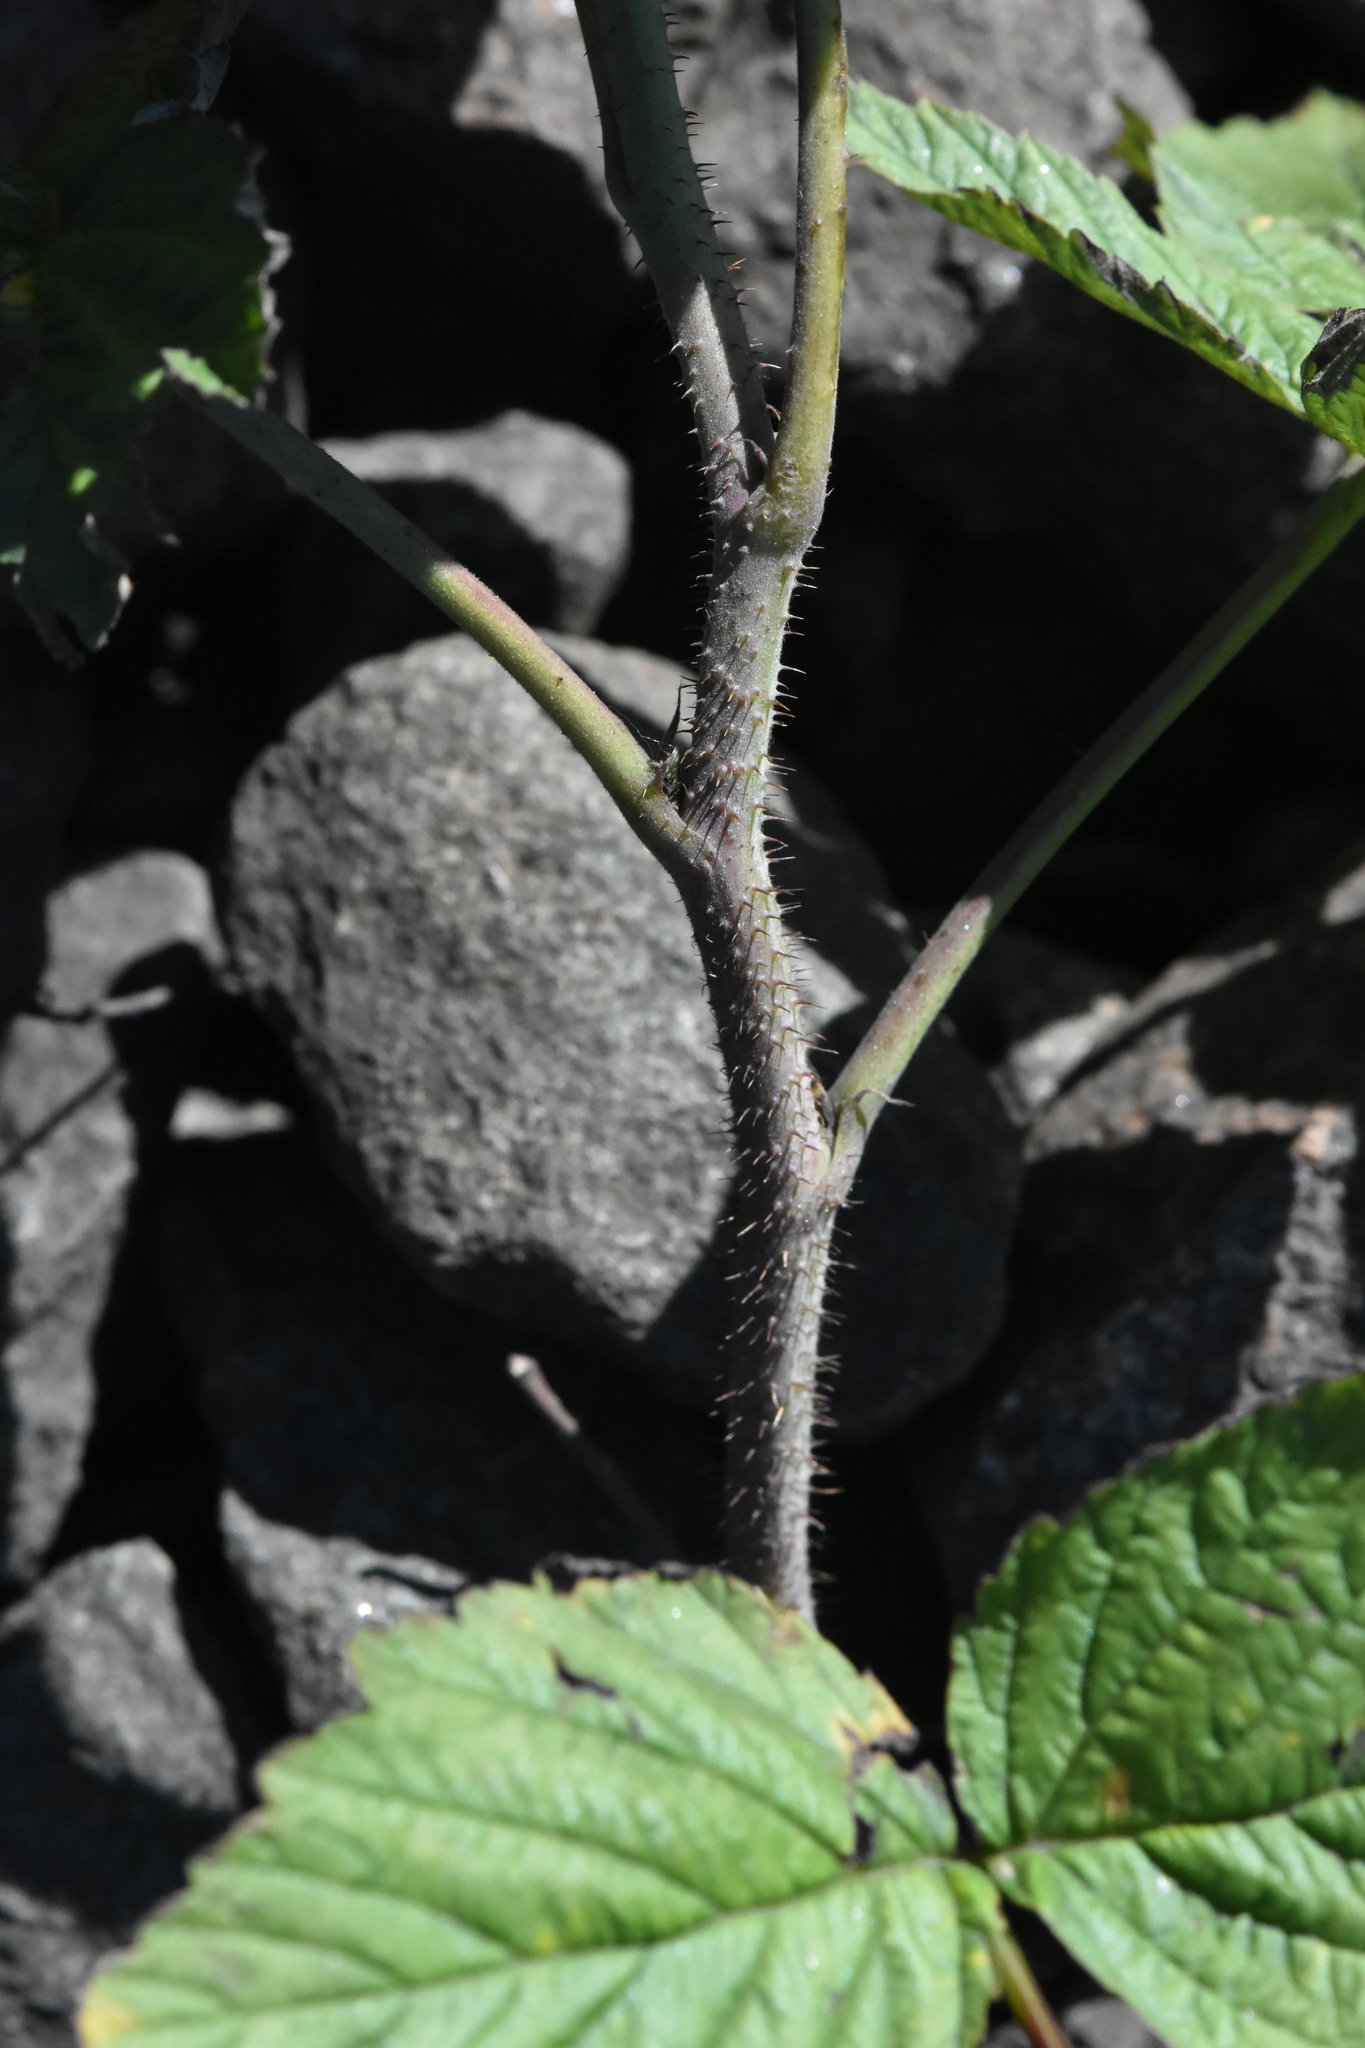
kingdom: Plantae
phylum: Tracheophyta
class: Magnoliopsida
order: Rosales
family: Rosaceae
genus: Rubus
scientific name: Rubus idaeus
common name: Raspberry
